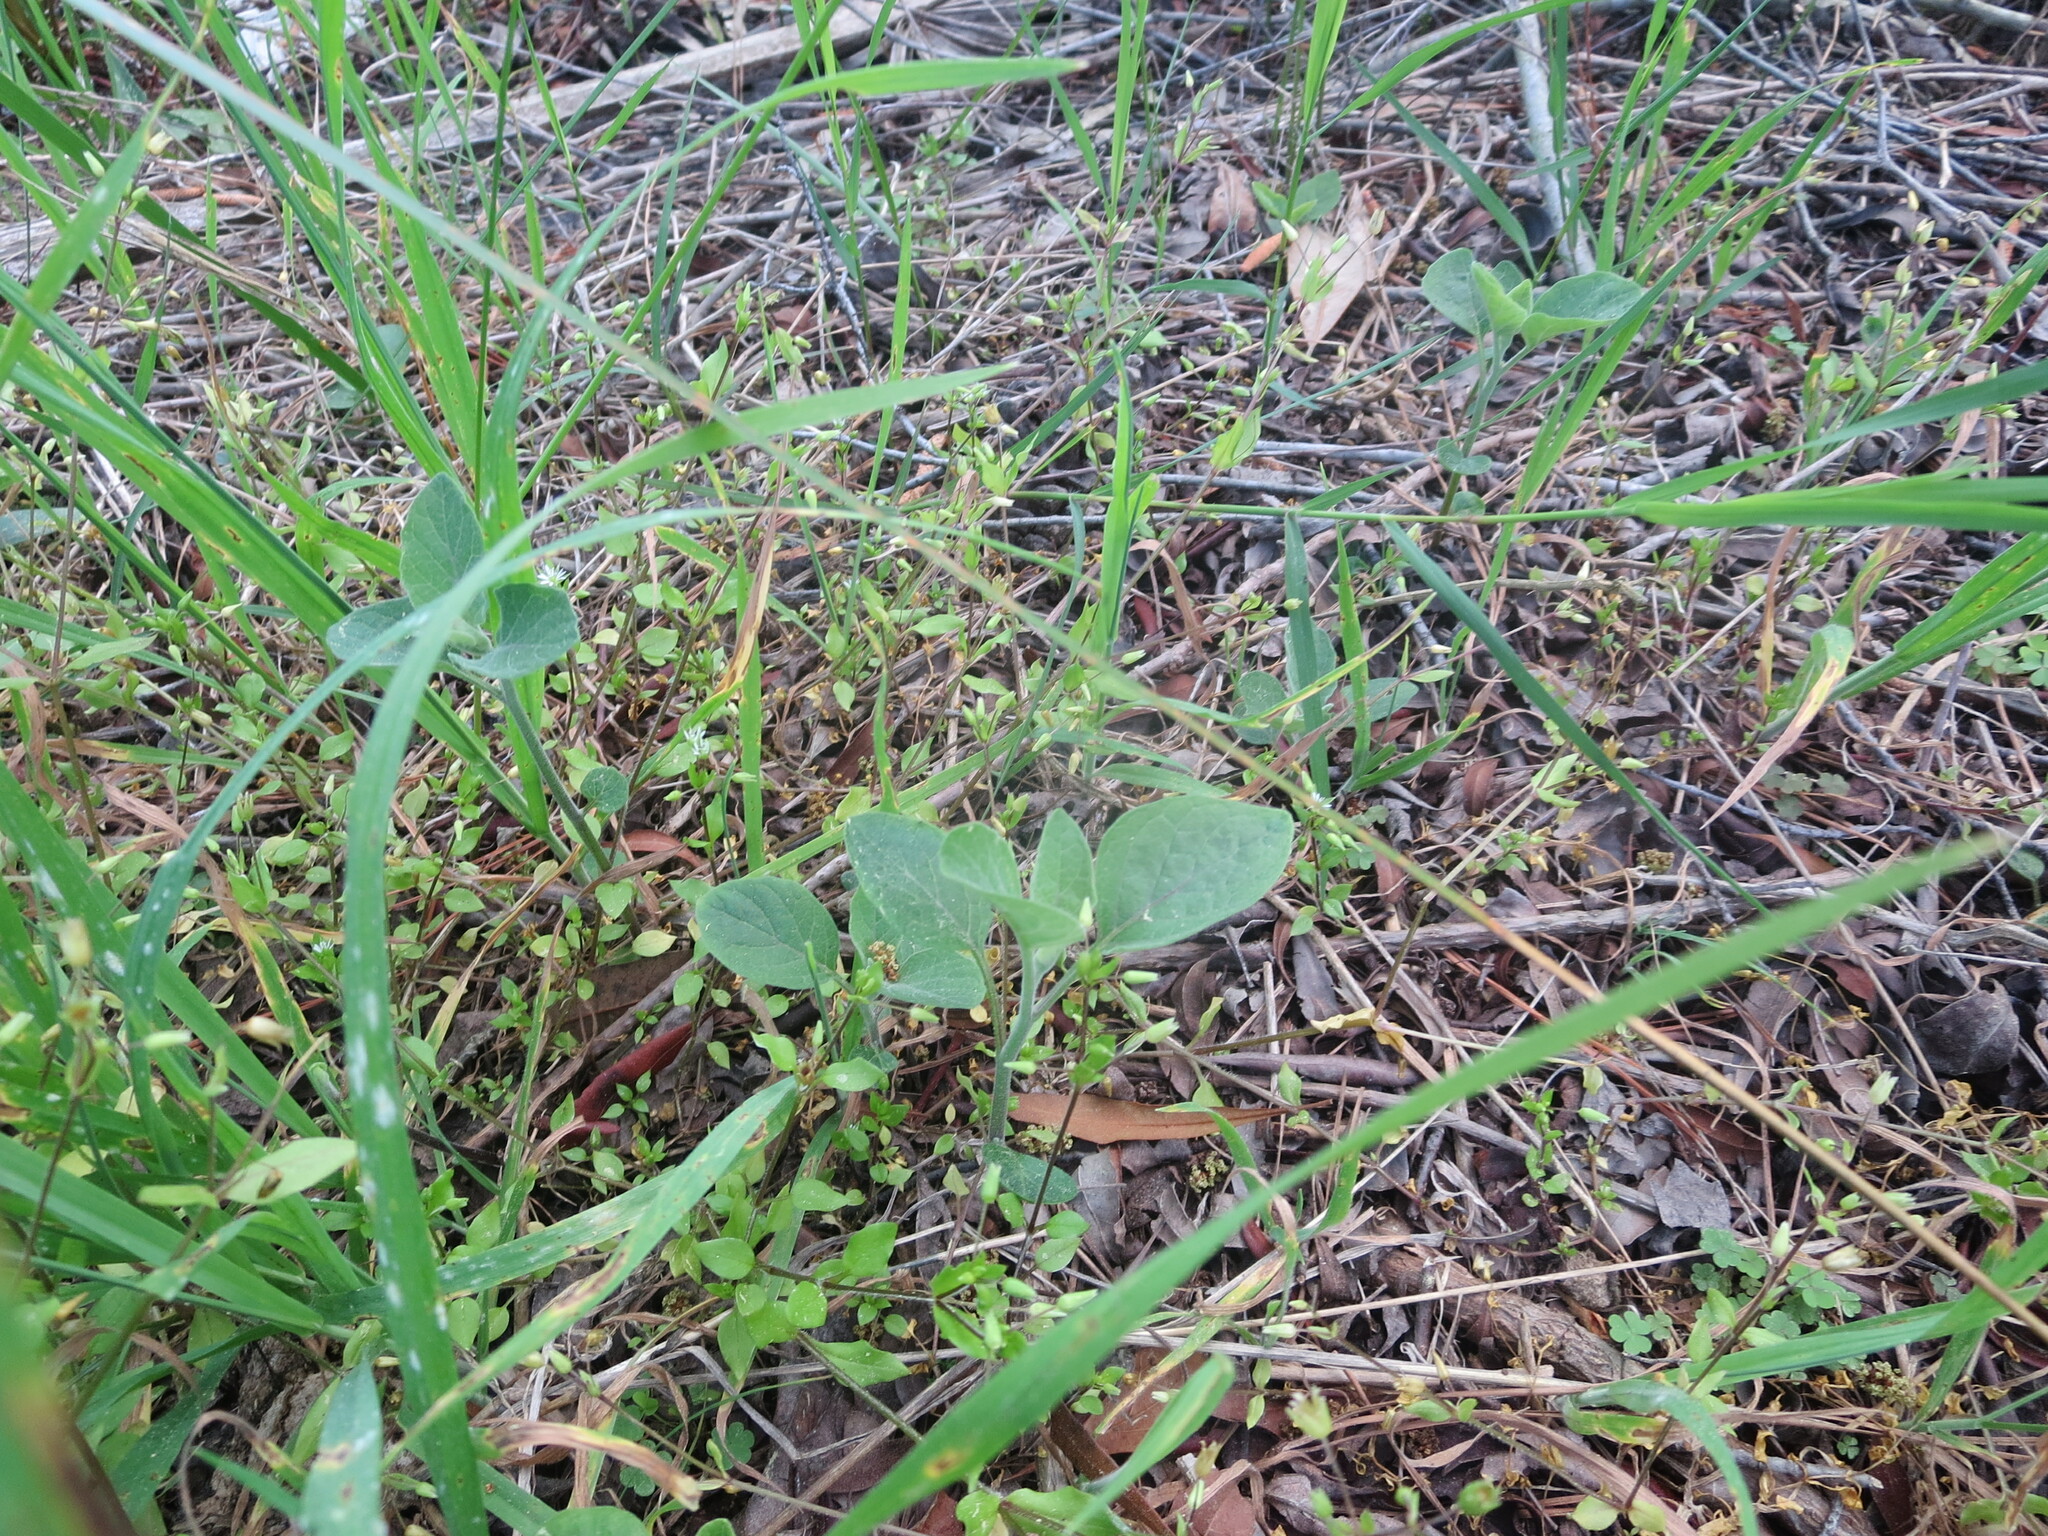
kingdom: Plantae
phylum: Tracheophyta
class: Magnoliopsida
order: Solanales
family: Solanaceae
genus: Physalis
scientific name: Physalis walteri
